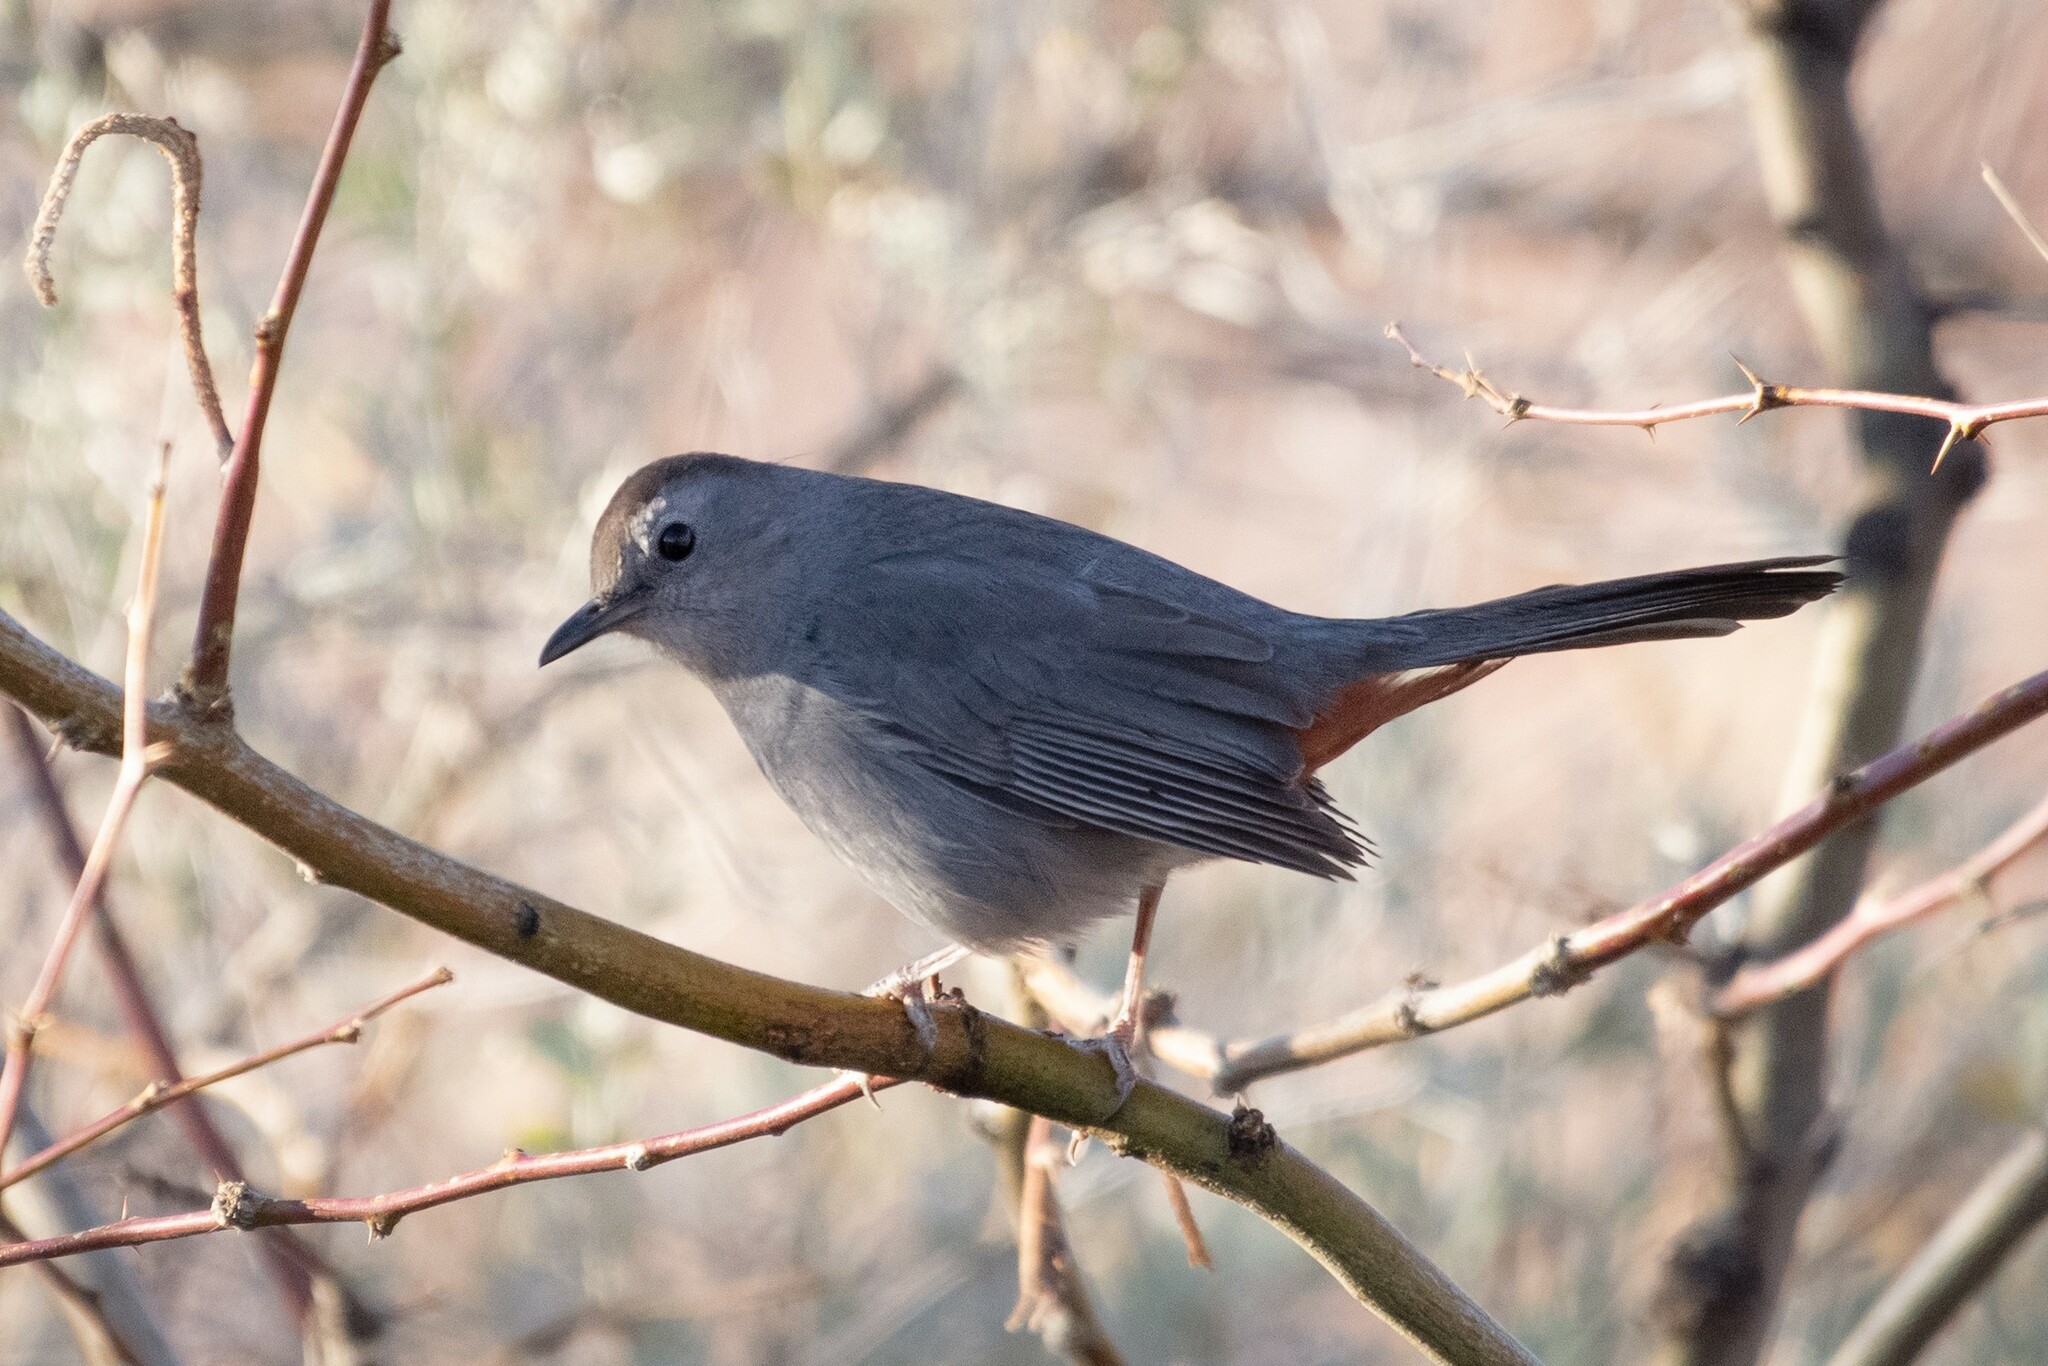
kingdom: Animalia
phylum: Chordata
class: Aves
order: Passeriformes
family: Mimidae
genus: Dumetella
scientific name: Dumetella carolinensis
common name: Gray catbird
